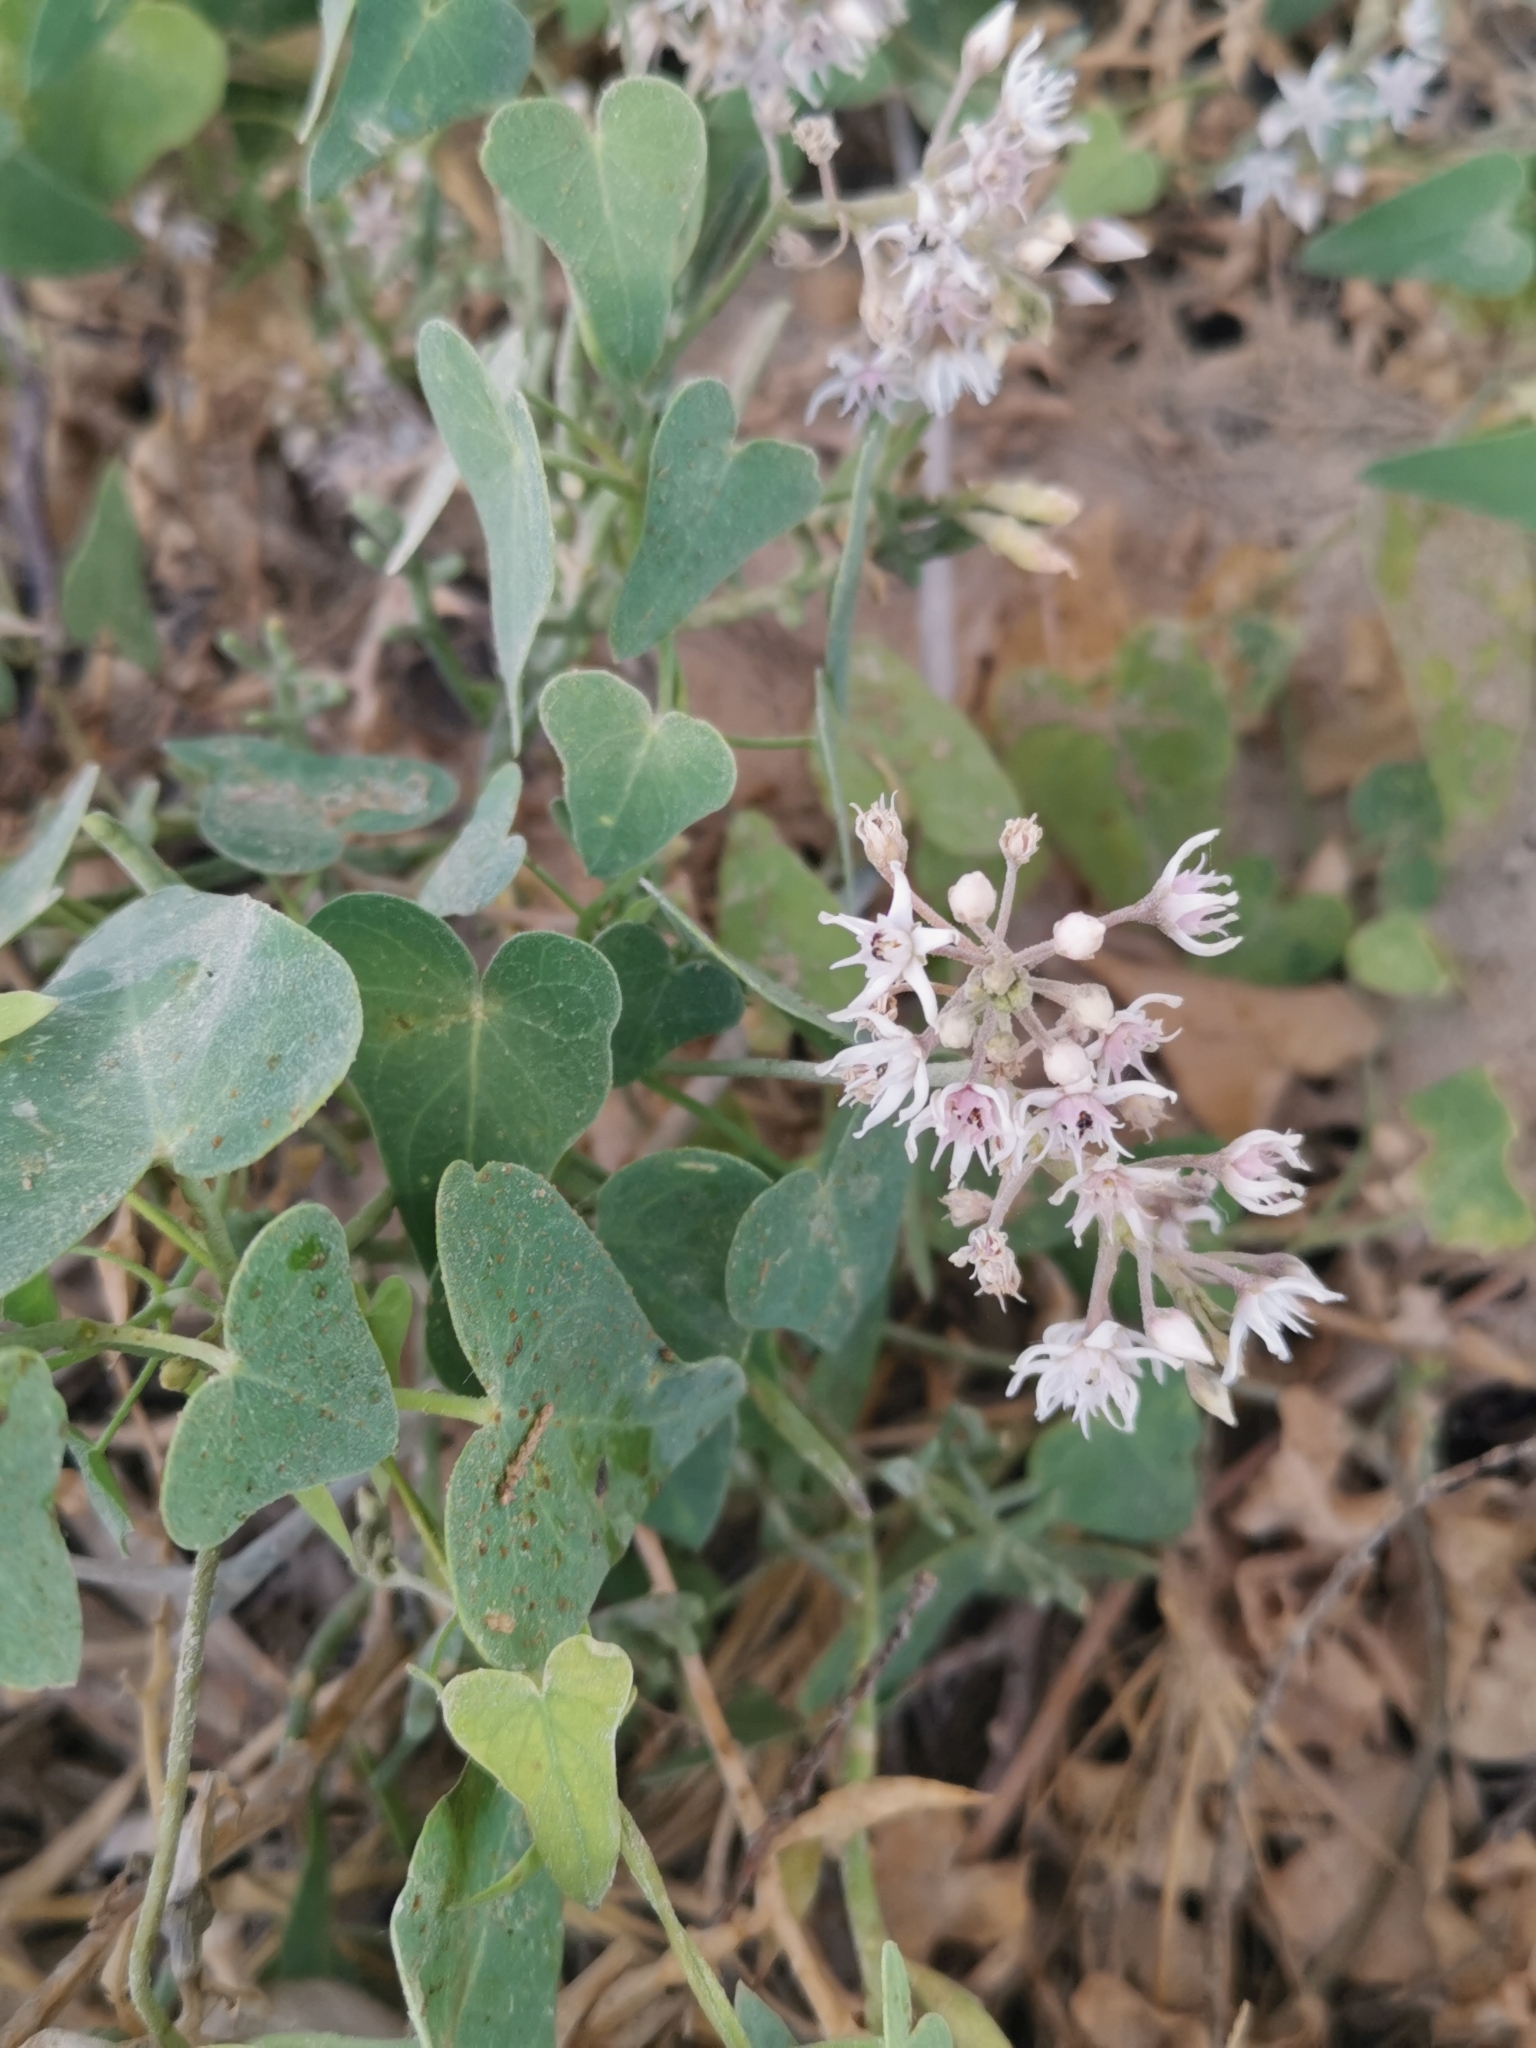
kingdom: Plantae
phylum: Tracheophyta
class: Magnoliopsida
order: Gentianales
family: Apocynaceae
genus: Cynanchum
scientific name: Cynanchum acutum
